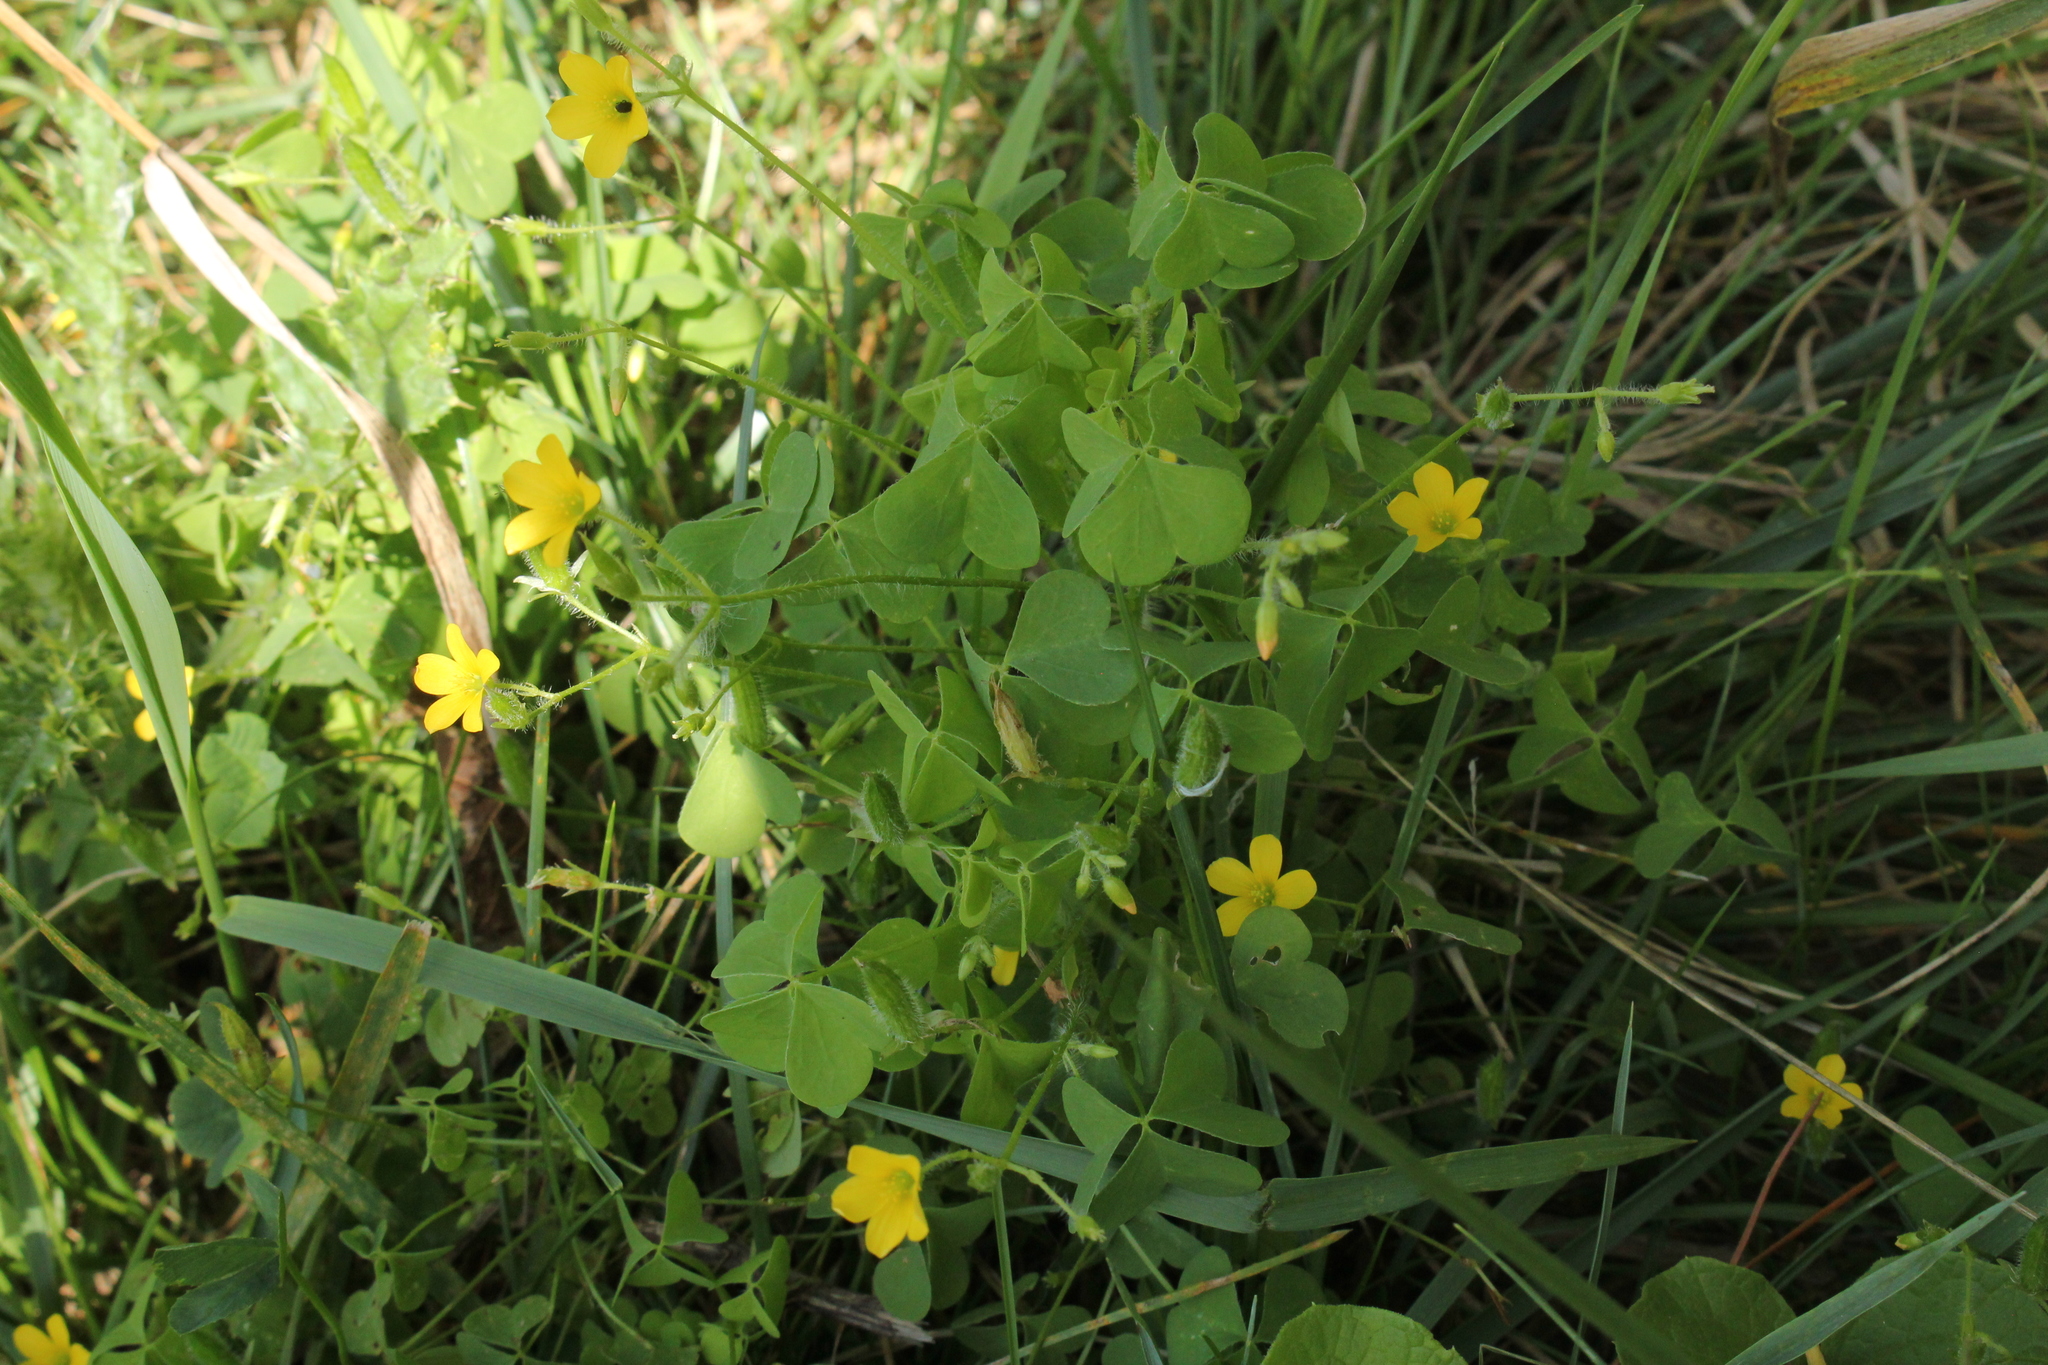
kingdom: Plantae
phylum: Tracheophyta
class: Magnoliopsida
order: Oxalidales
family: Oxalidaceae
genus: Oxalis
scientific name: Oxalis stricta
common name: Upright yellow-sorrel
